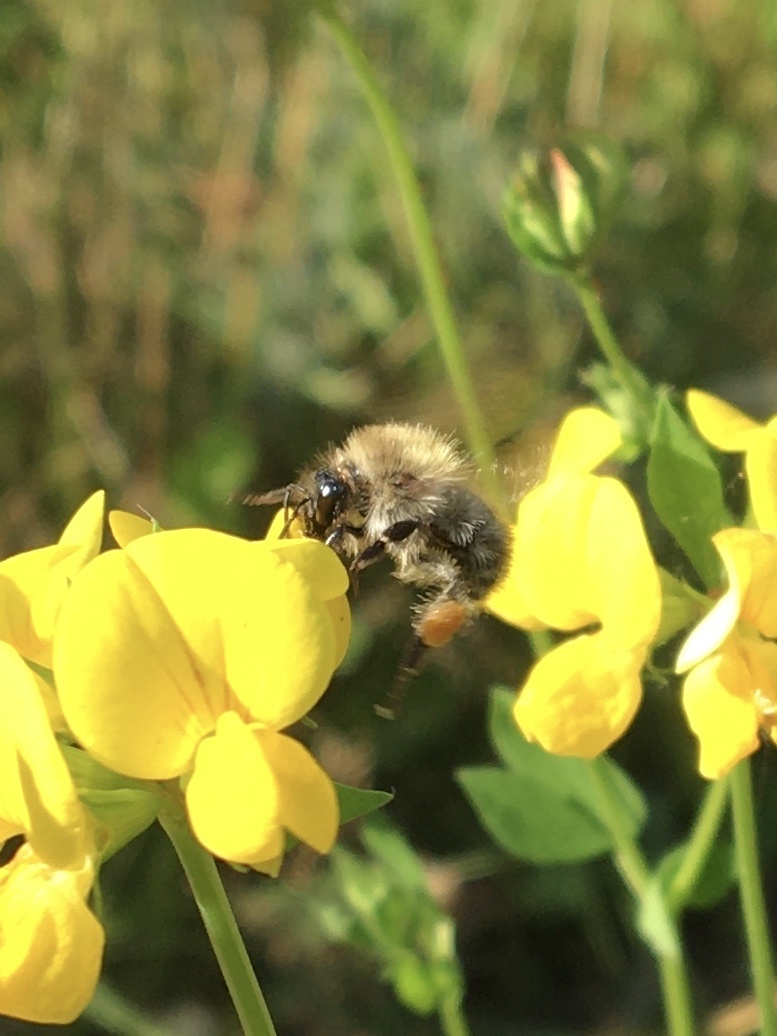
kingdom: Animalia
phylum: Arthropoda
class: Insecta
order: Hymenoptera
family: Apidae
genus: Bombus
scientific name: Bombus pascuorum
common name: Common carder bee
